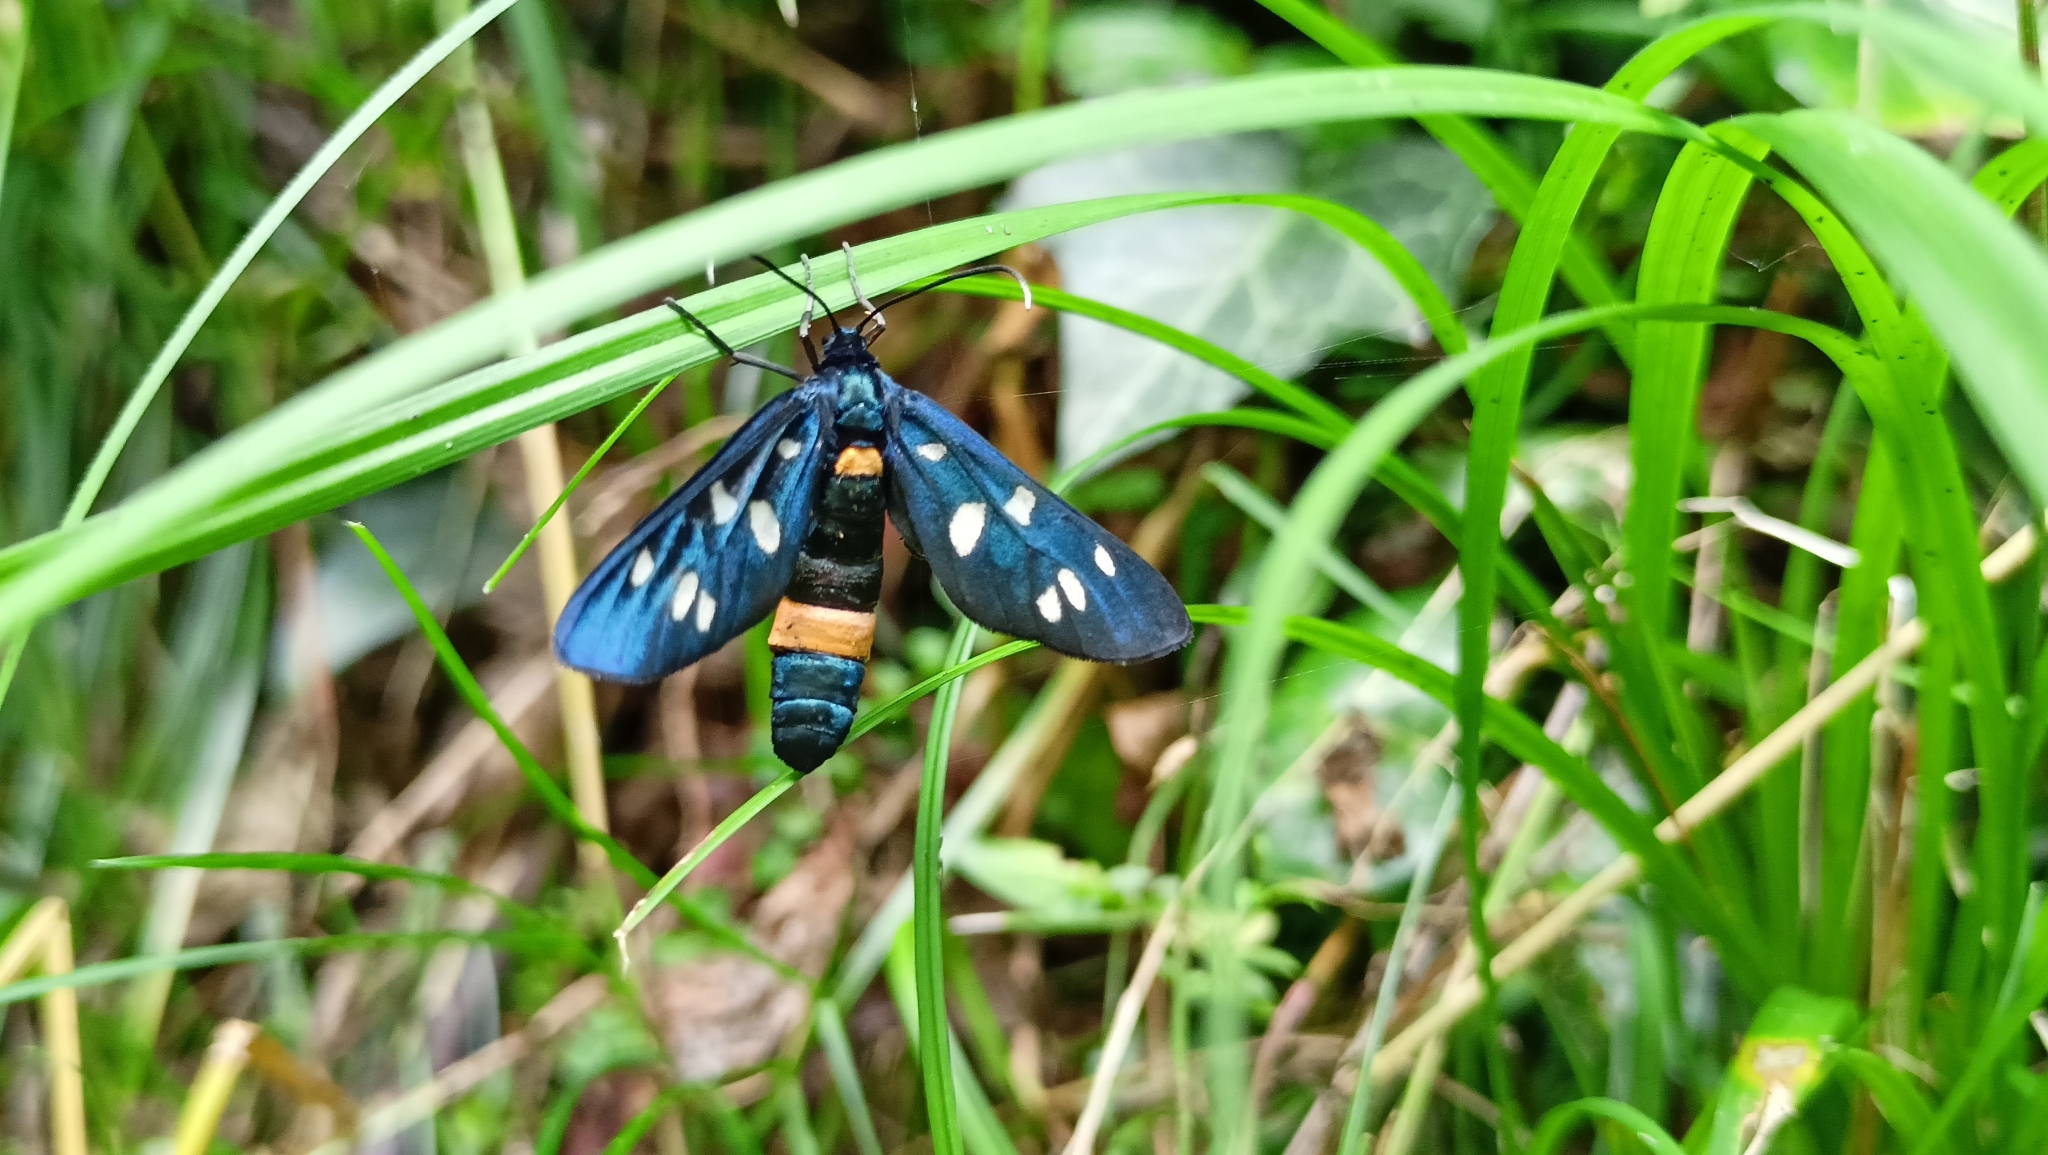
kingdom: Animalia
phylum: Arthropoda
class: Insecta
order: Lepidoptera
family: Erebidae
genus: Amata
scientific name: Amata phegea
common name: Nine-spotted
